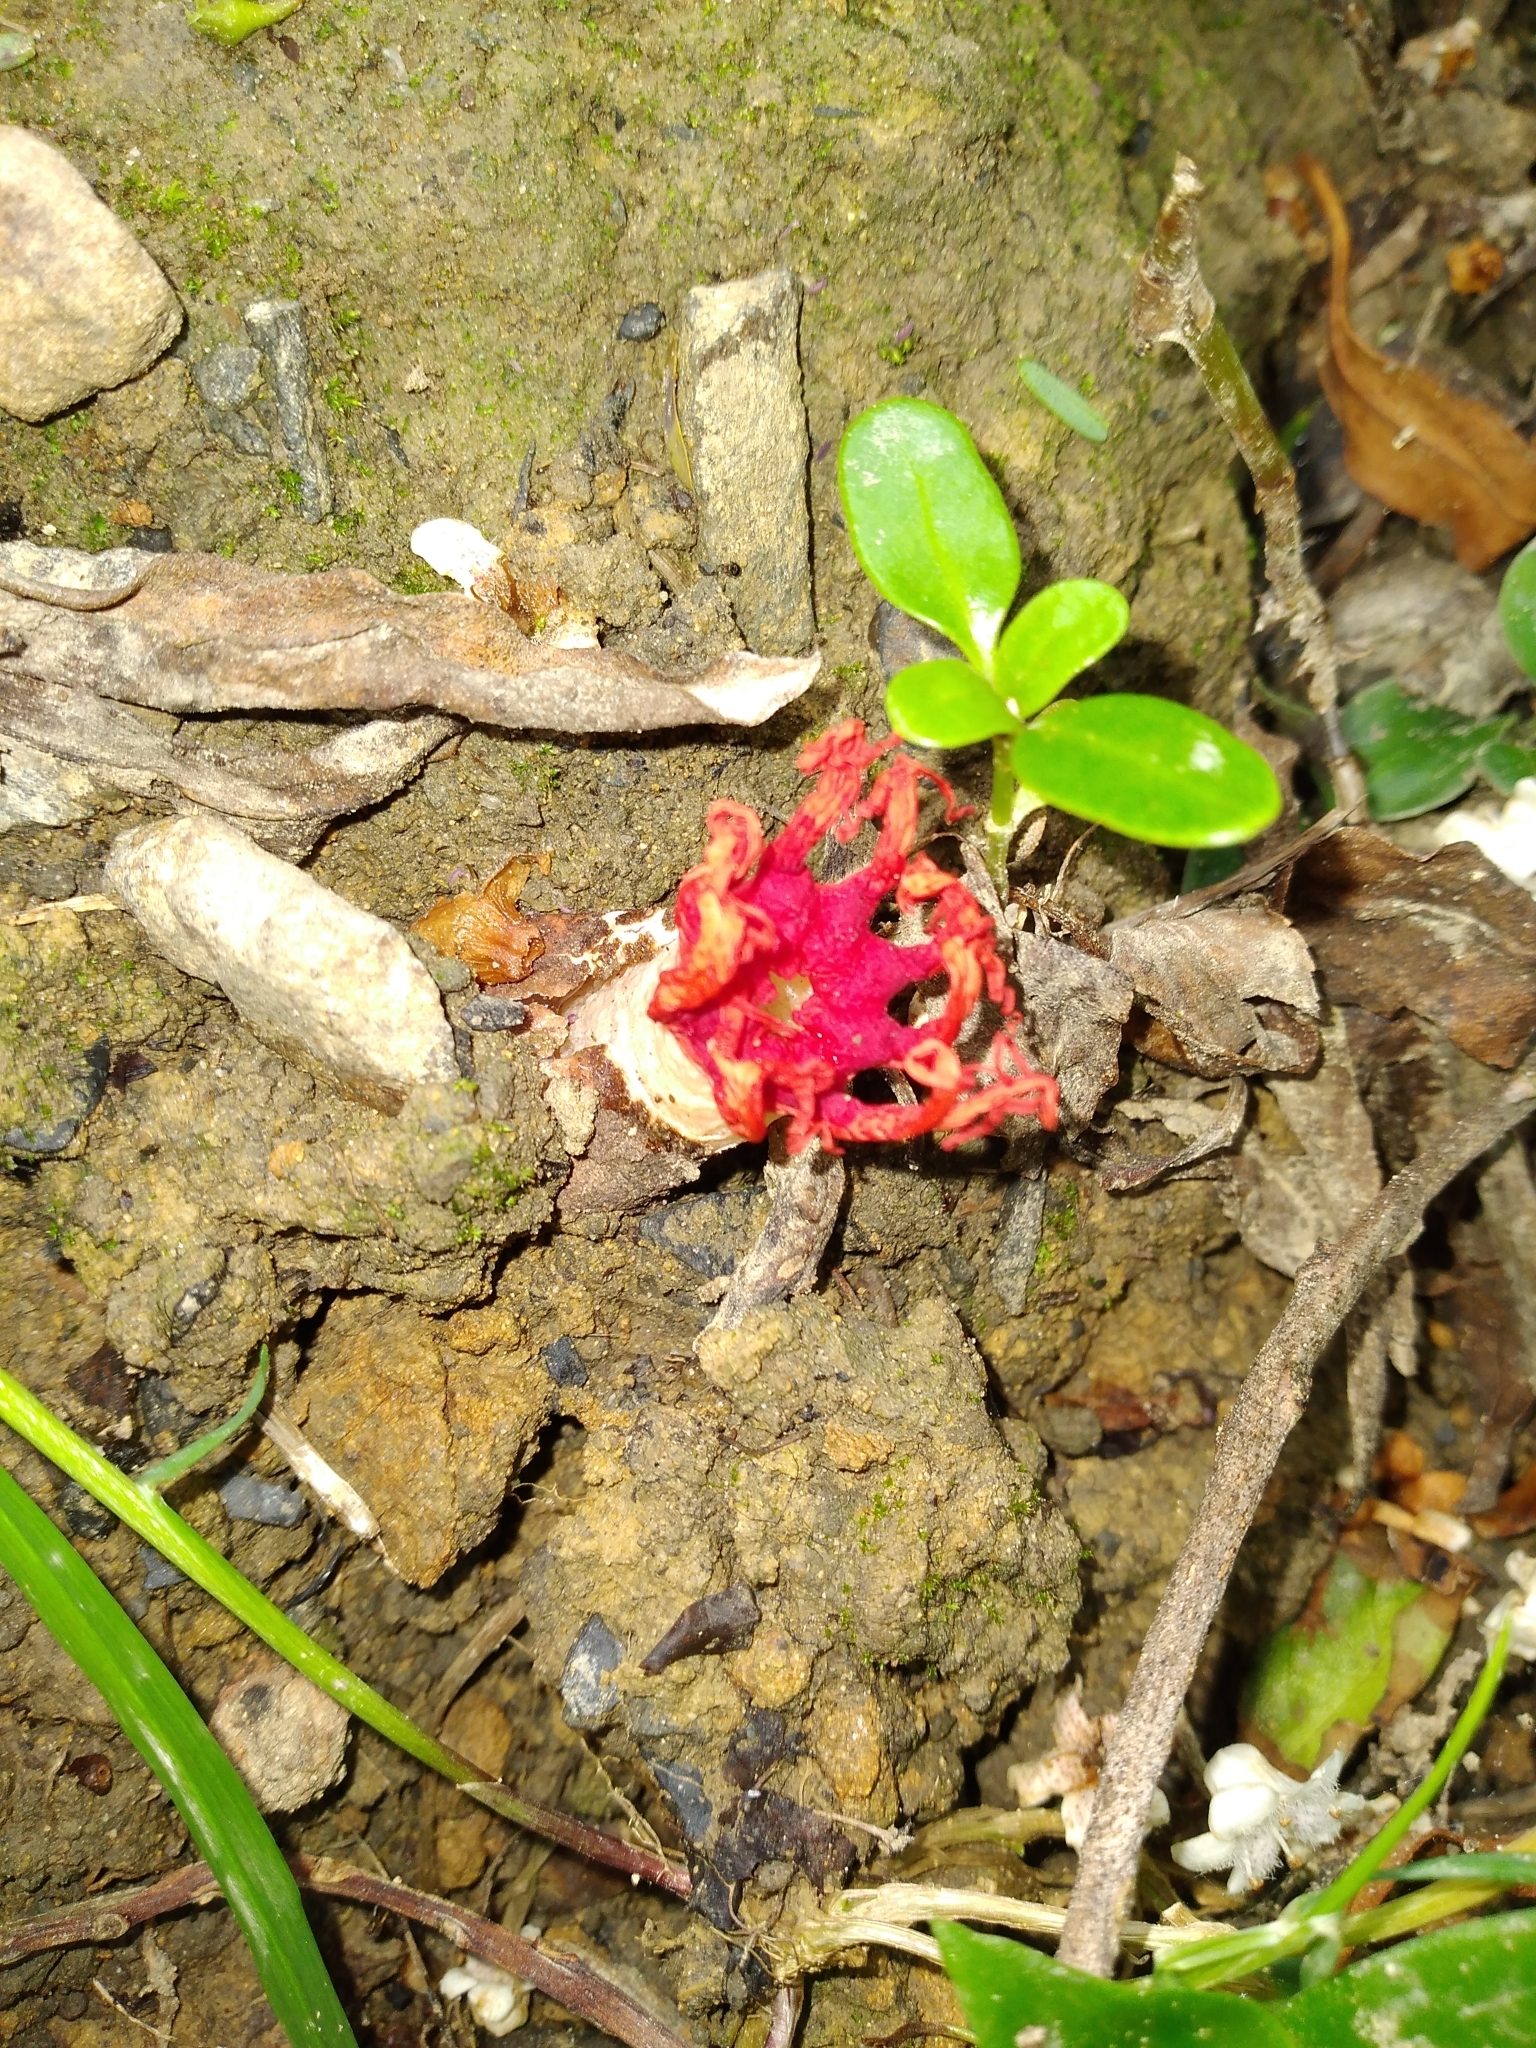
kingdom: Fungi
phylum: Basidiomycota
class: Agaricomycetes
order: Phallales
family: Phallaceae
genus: Aseroe
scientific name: Aseroe rubra
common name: Starfish fungus
